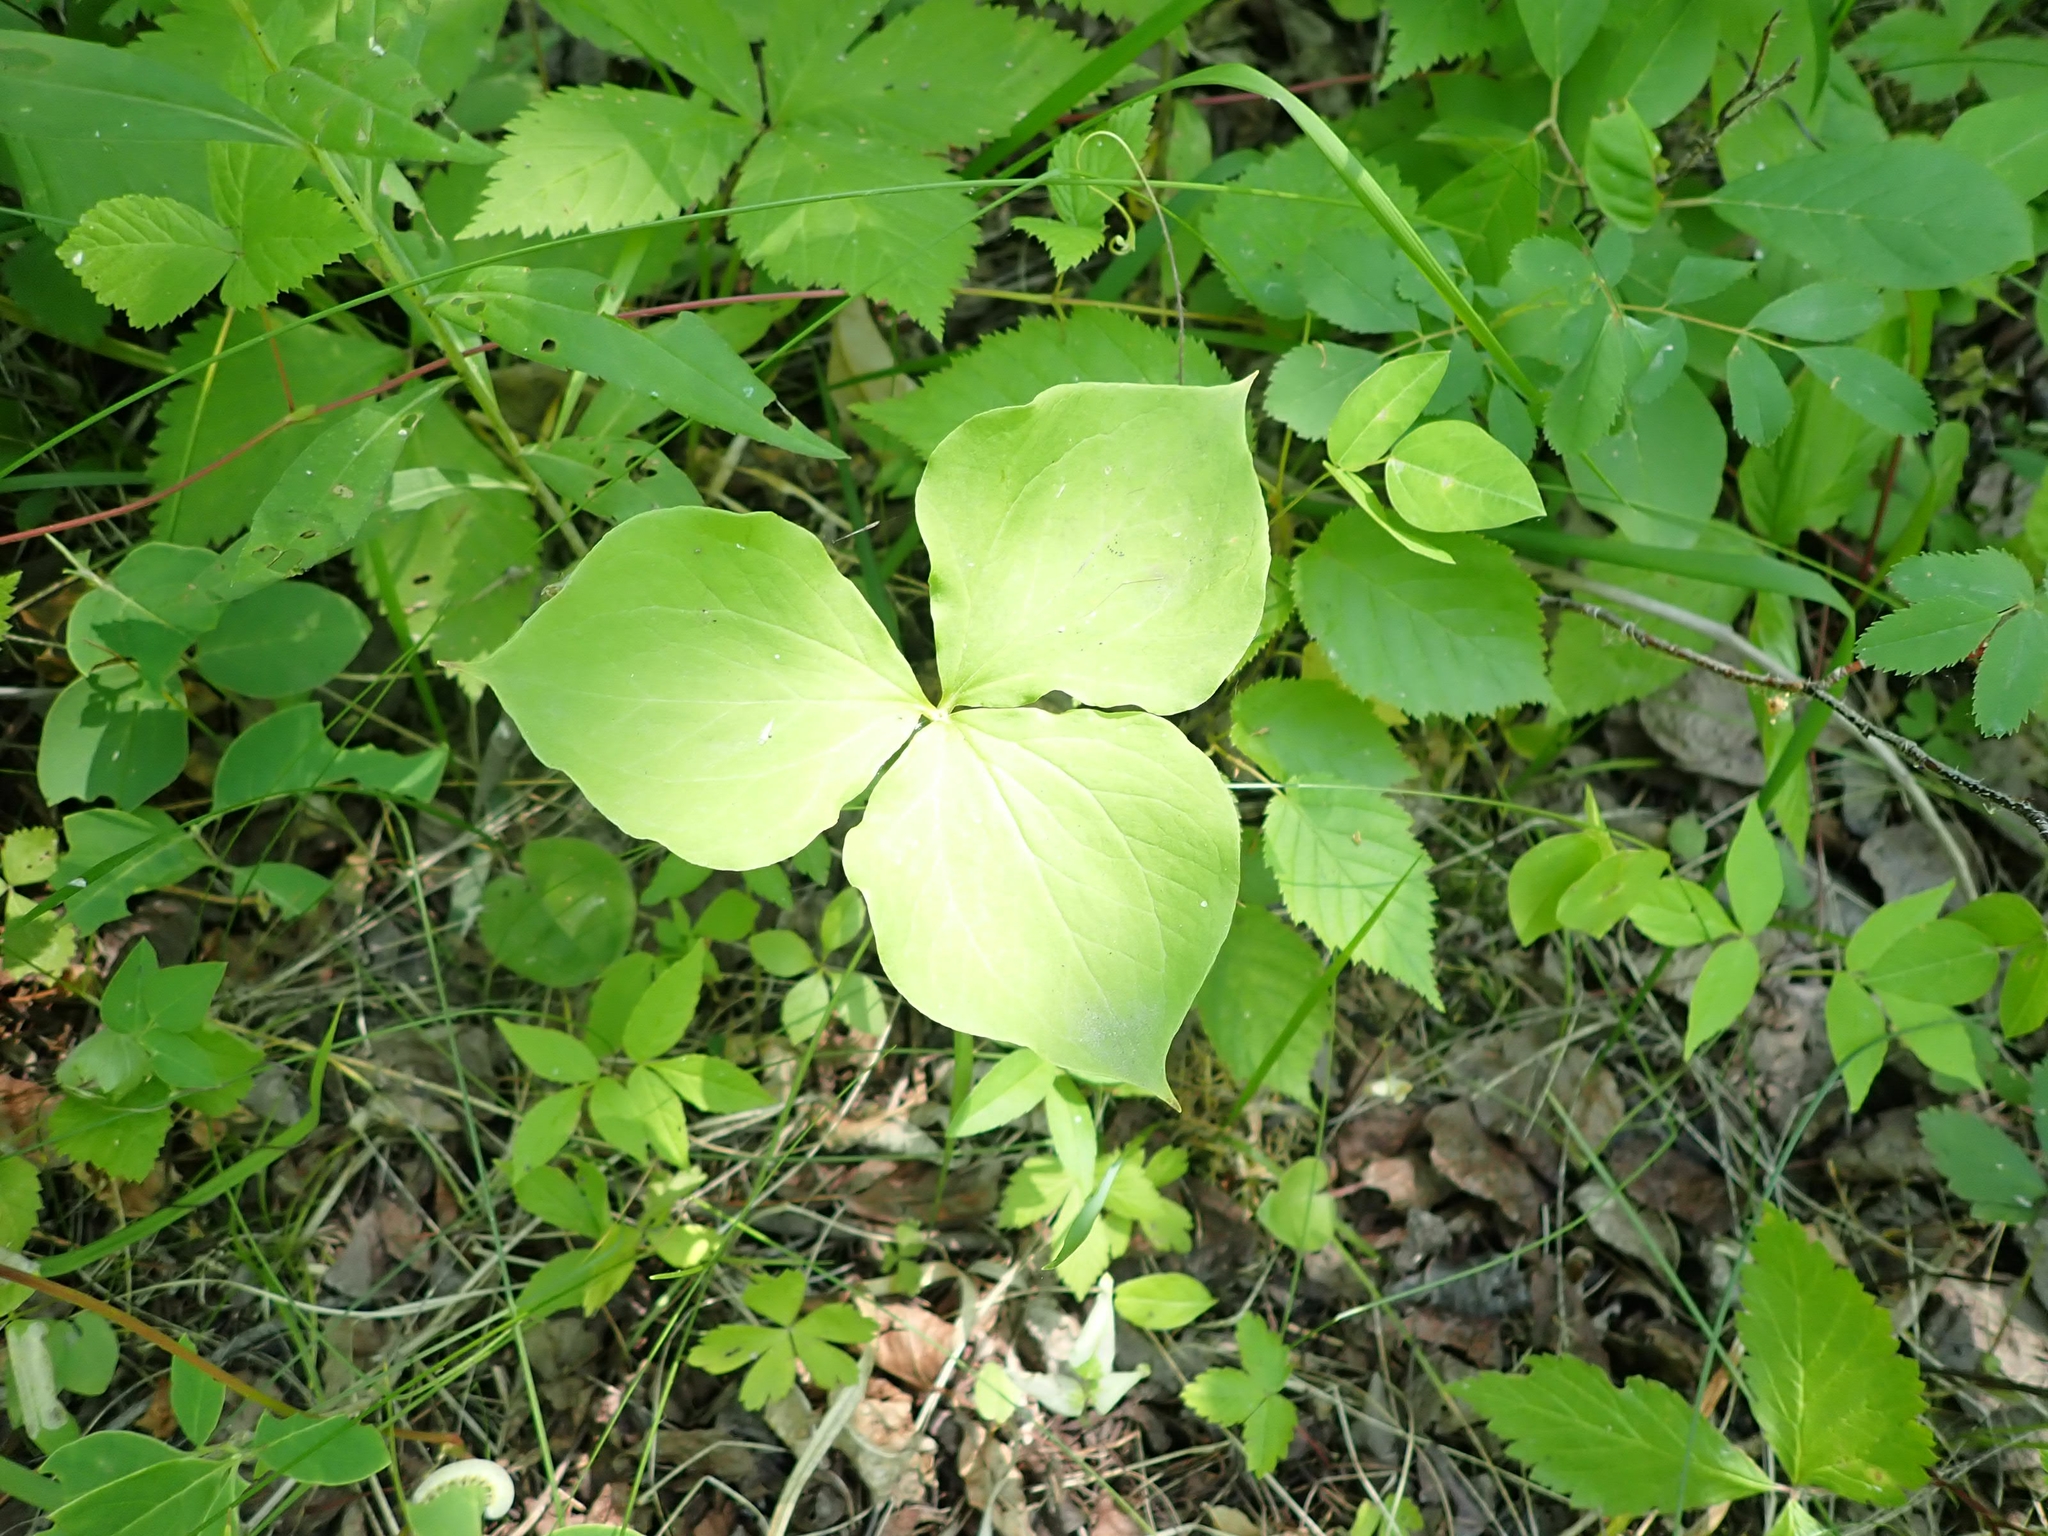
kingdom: Plantae
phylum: Tracheophyta
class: Liliopsida
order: Liliales
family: Melanthiaceae
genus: Trillium
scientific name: Trillium cernuum
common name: Nodding trillium
